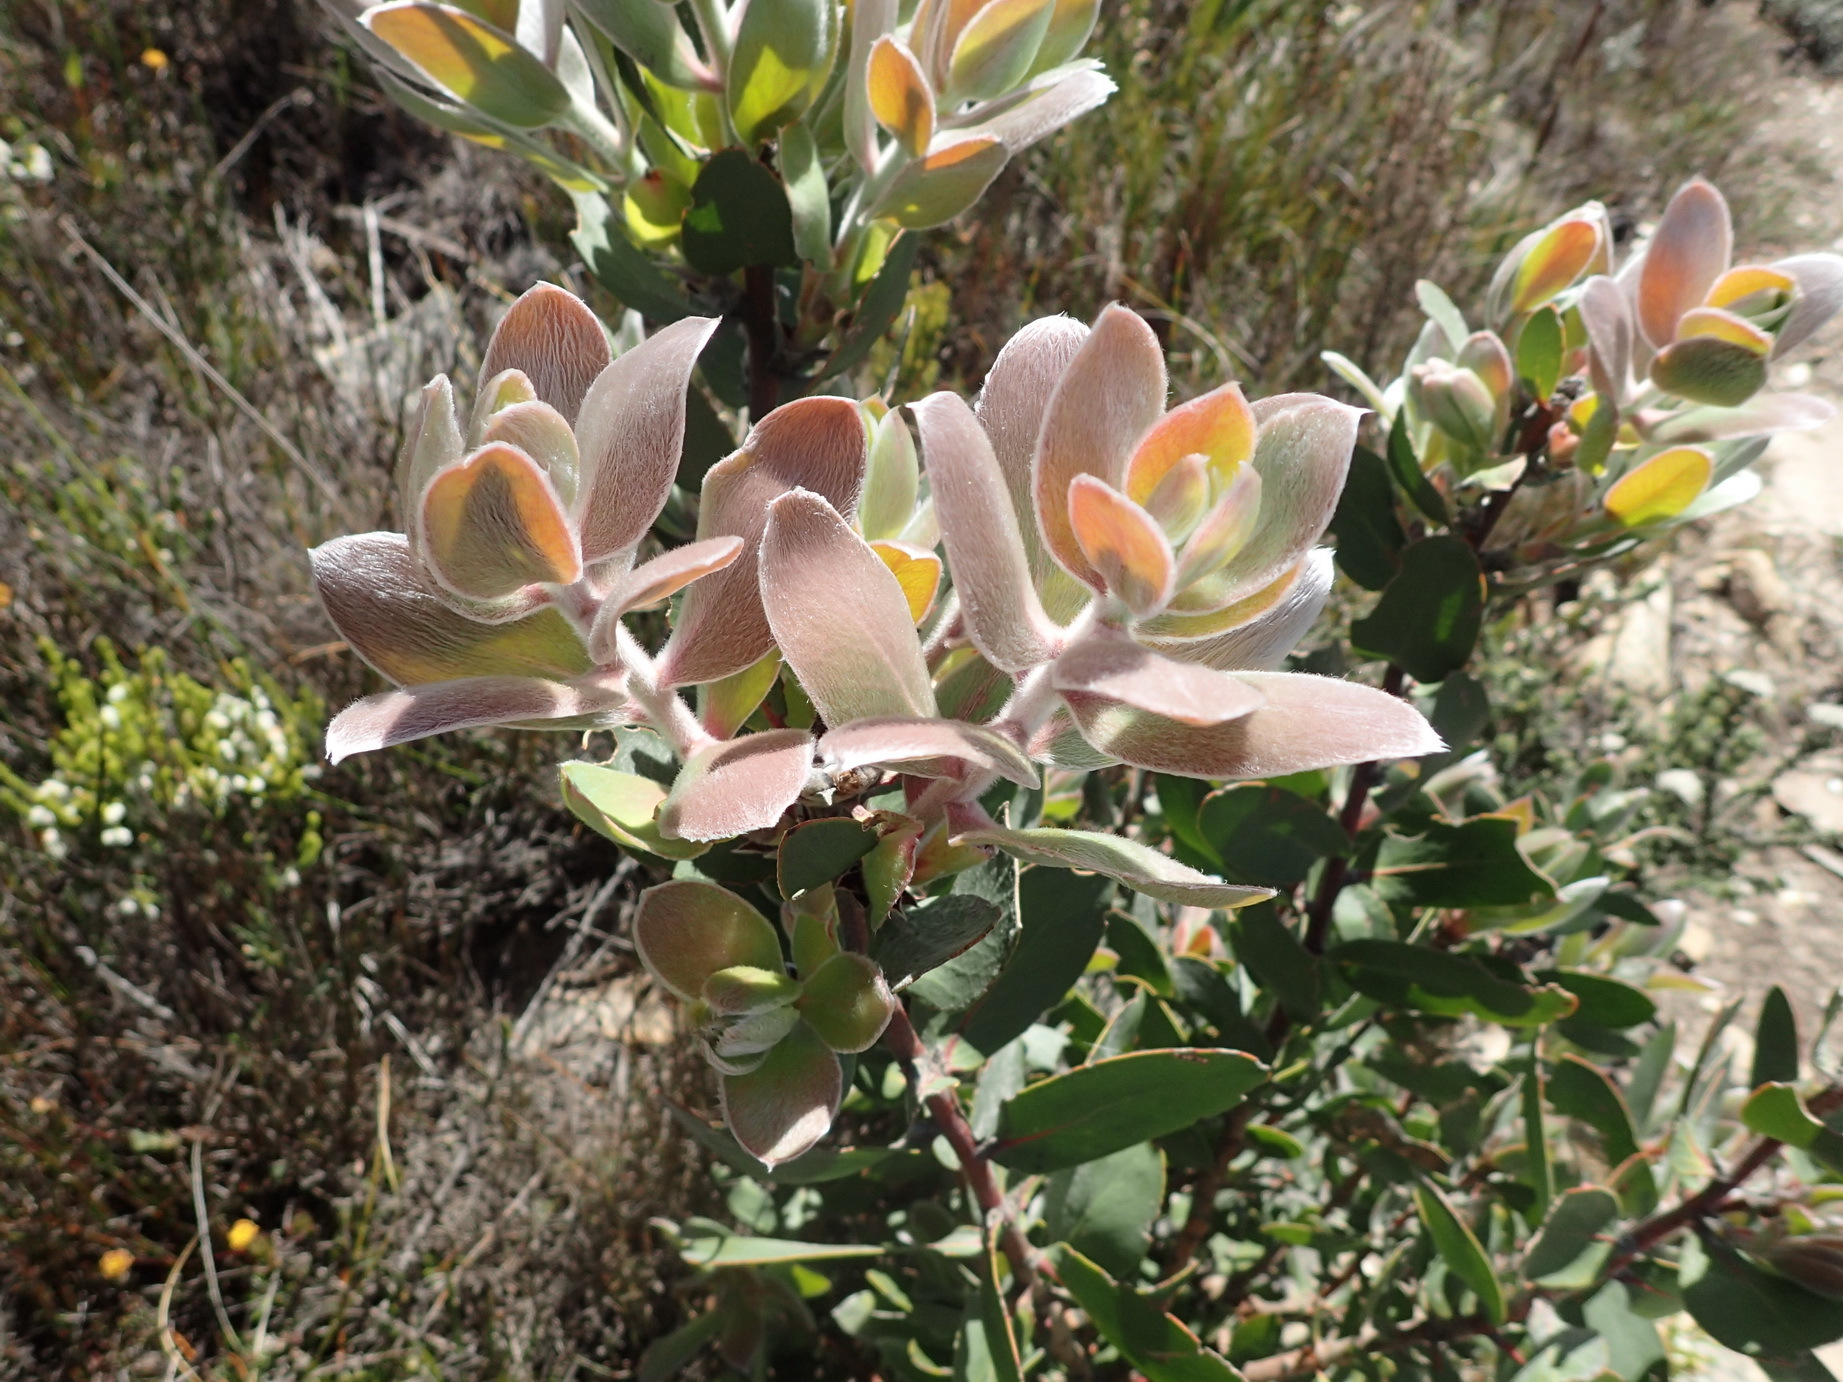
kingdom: Plantae
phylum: Tracheophyta
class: Magnoliopsida
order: Proteales
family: Proteaceae
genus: Protea
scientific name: Protea punctata
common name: Water sugarbush
